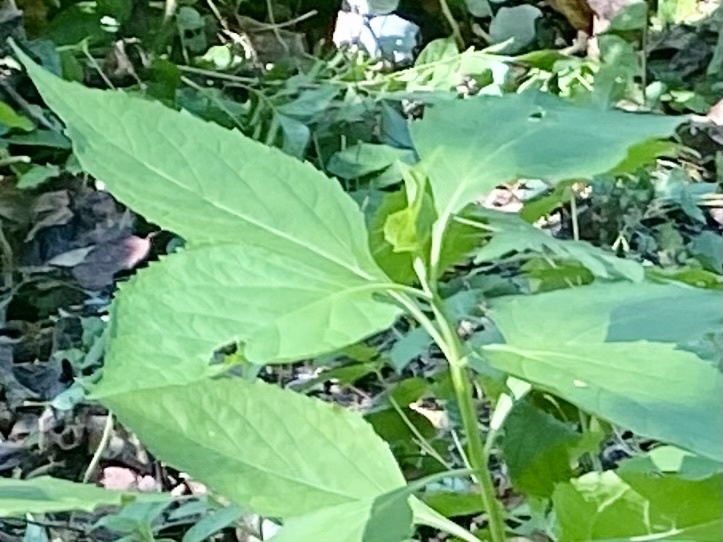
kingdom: Plantae
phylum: Tracheophyta
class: Magnoliopsida
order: Asterales
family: Asteraceae
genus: Verbesina
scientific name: Verbesina occidentalis
